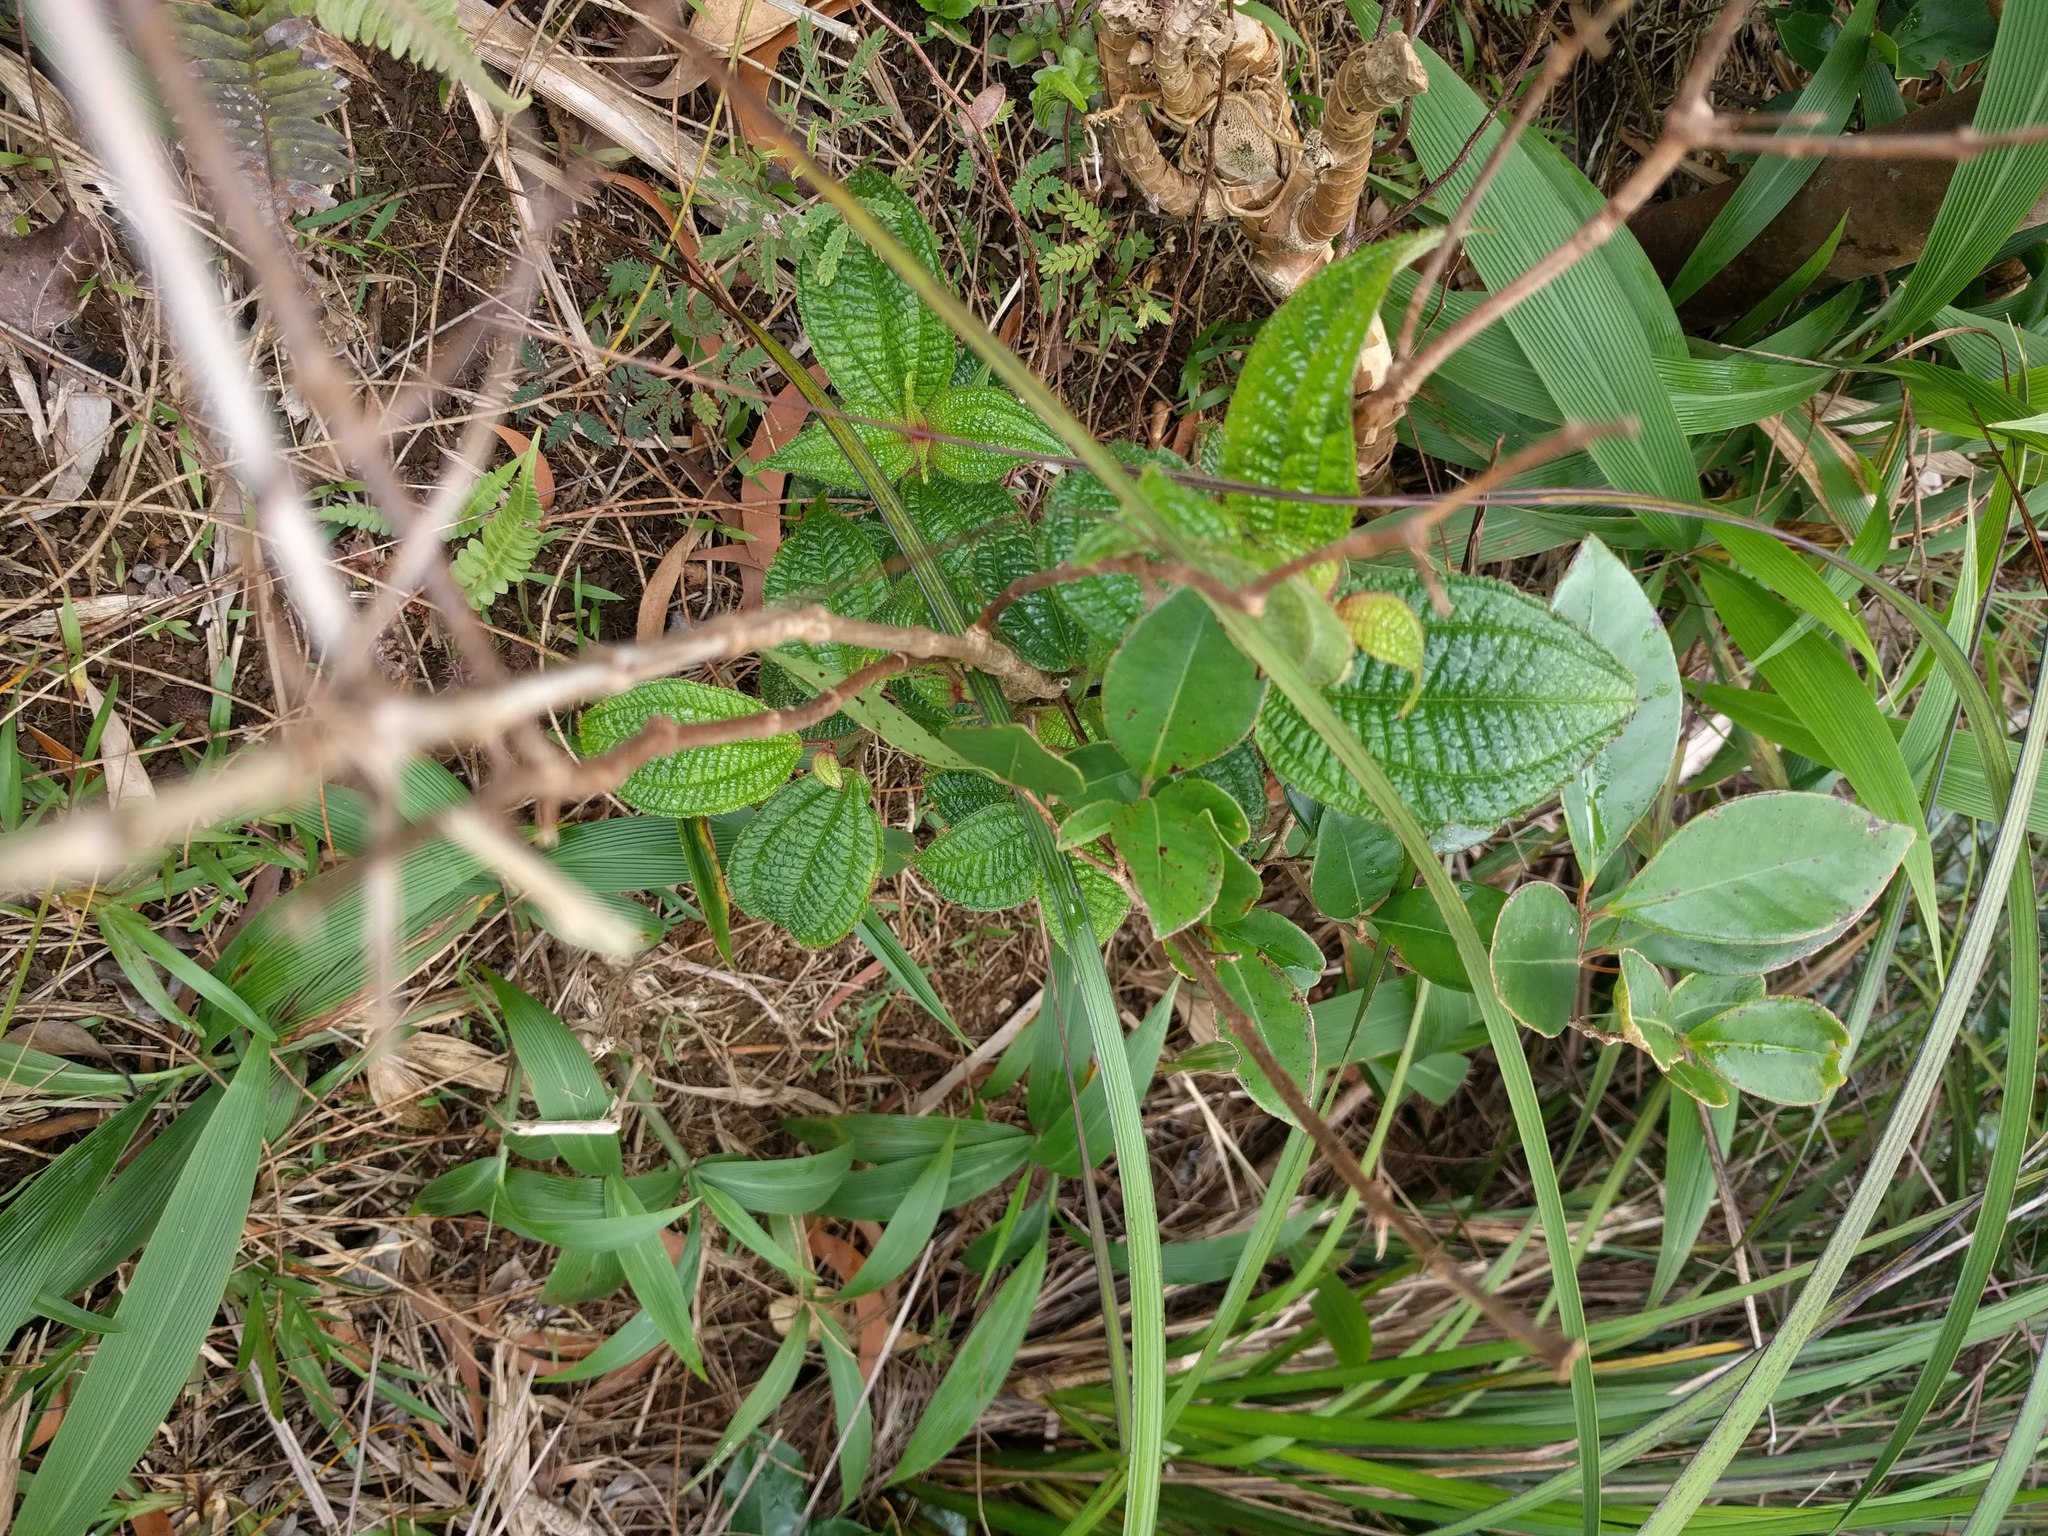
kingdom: Plantae
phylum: Tracheophyta
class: Magnoliopsida
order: Myrtales
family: Melastomataceae
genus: Miconia
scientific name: Miconia crenata
